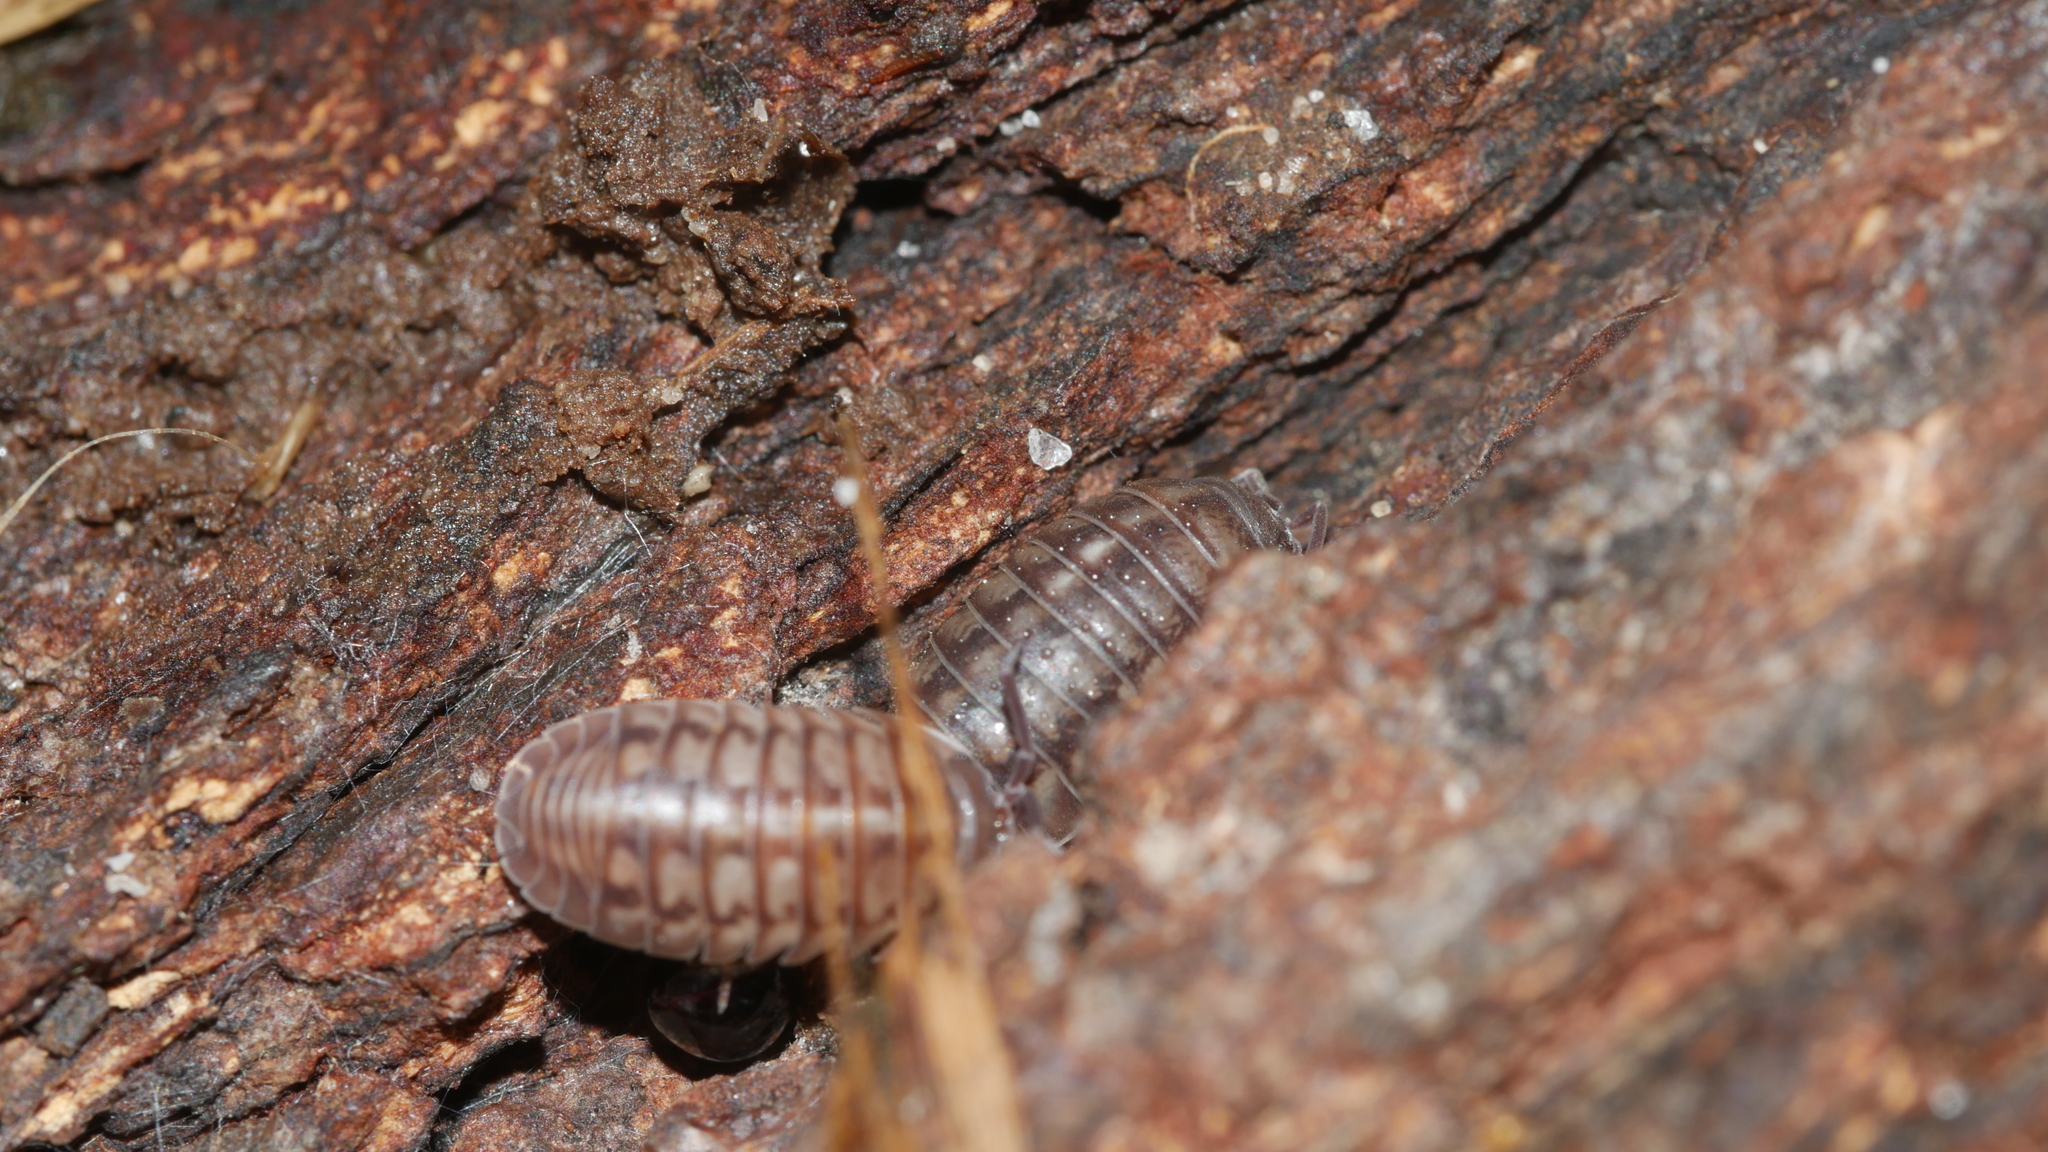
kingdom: Animalia
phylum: Arthropoda
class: Malacostraca
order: Isopoda
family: Armadillidiidae
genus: Armadillidium
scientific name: Armadillidium nasatum
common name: Isopod
